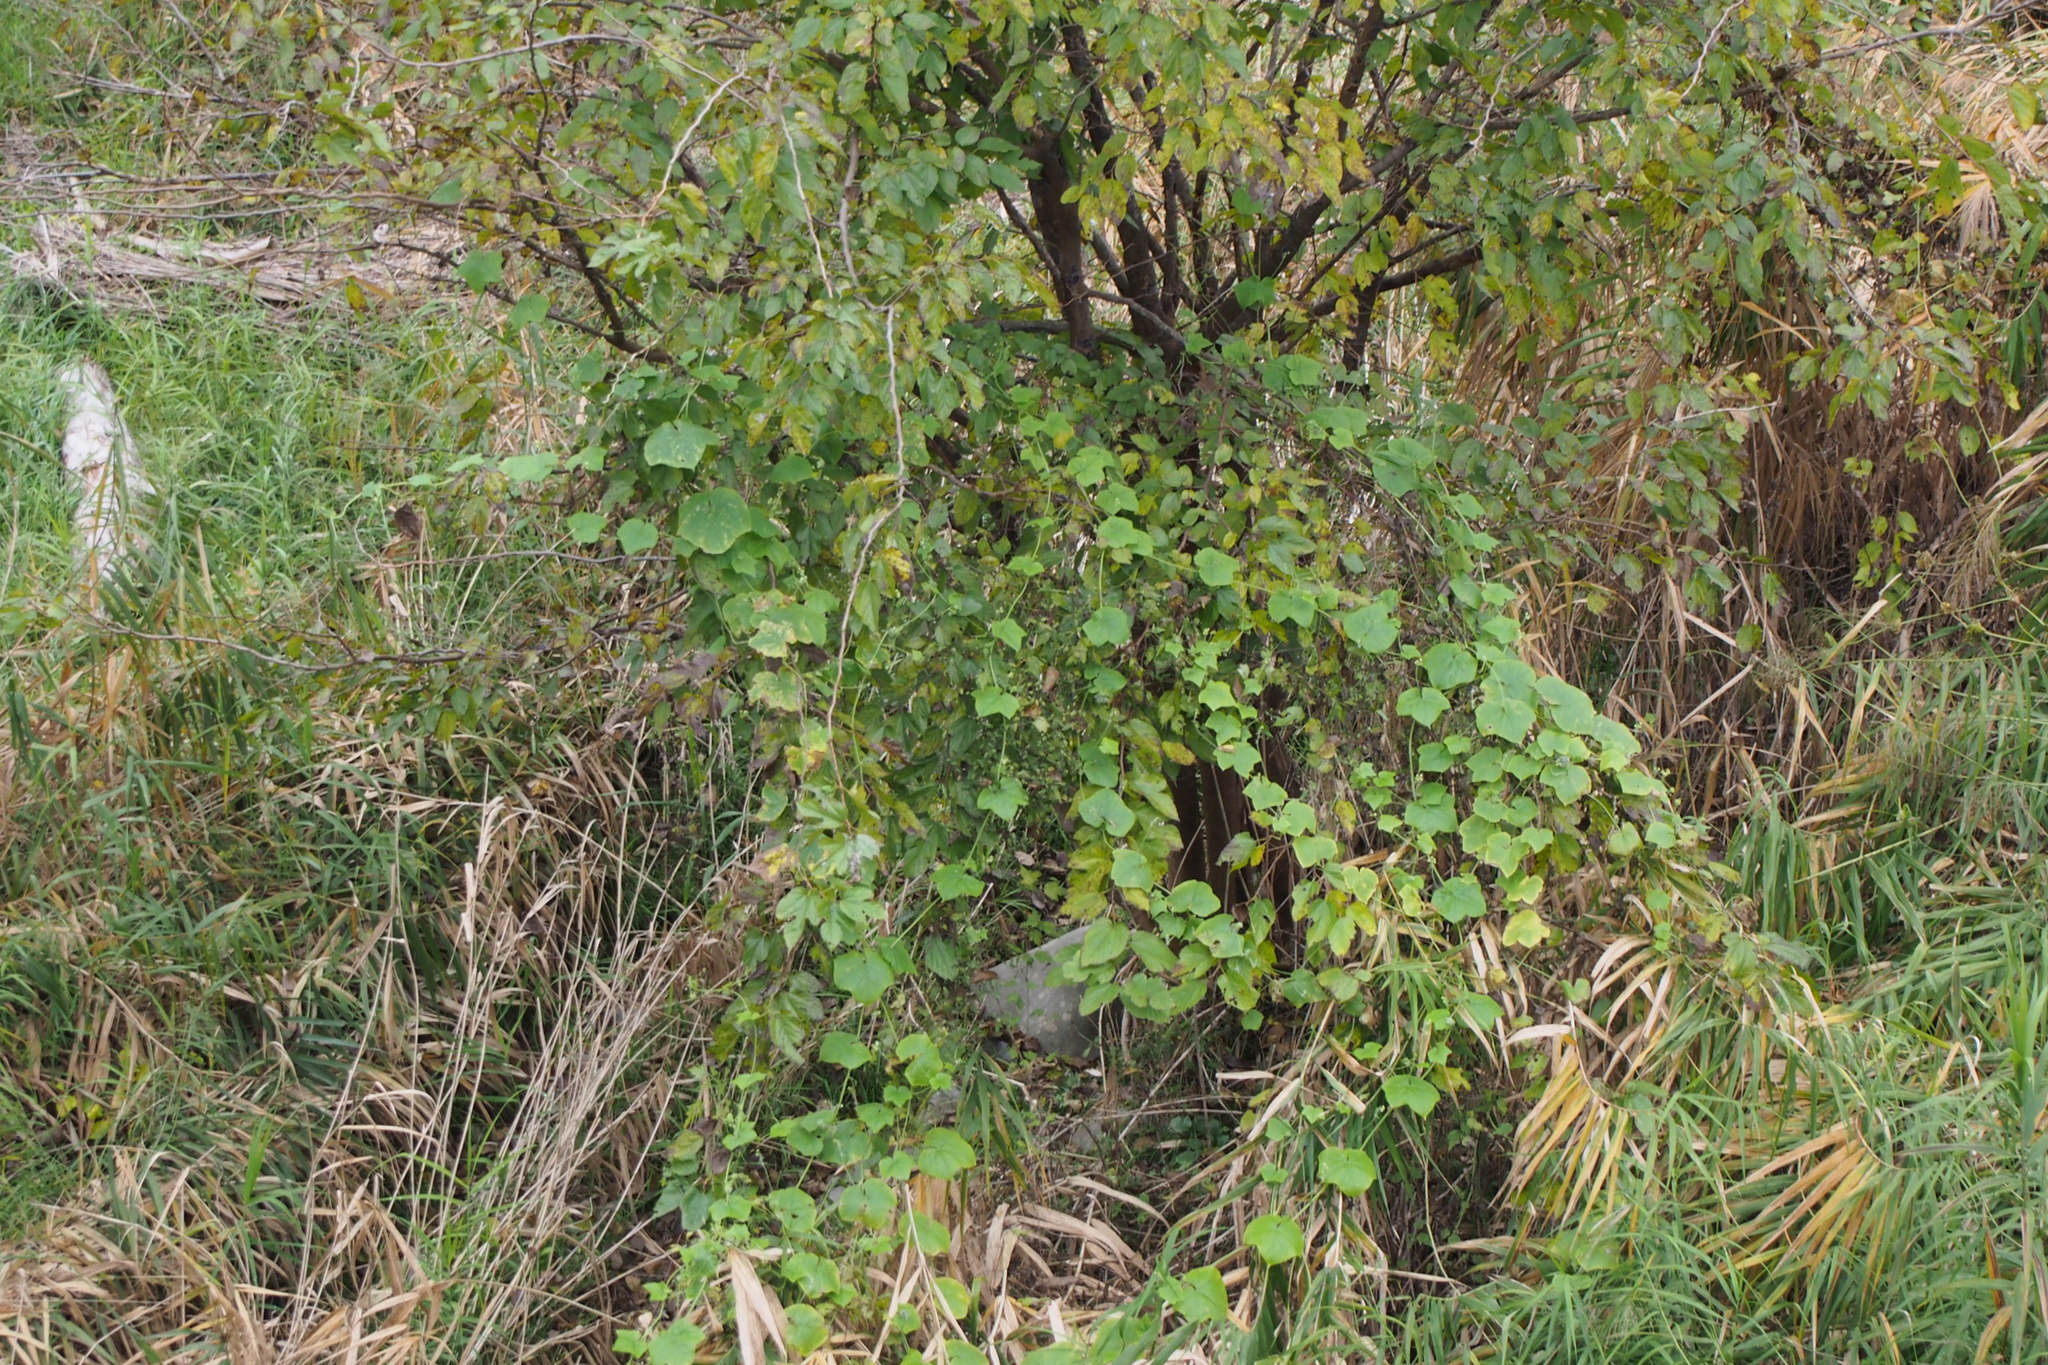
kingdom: Plantae
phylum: Tracheophyta
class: Magnoliopsida
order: Cucurbitales
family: Cucurbitaceae
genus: Sicyos
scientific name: Sicyos angulatus
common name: Angled burr cucumber
